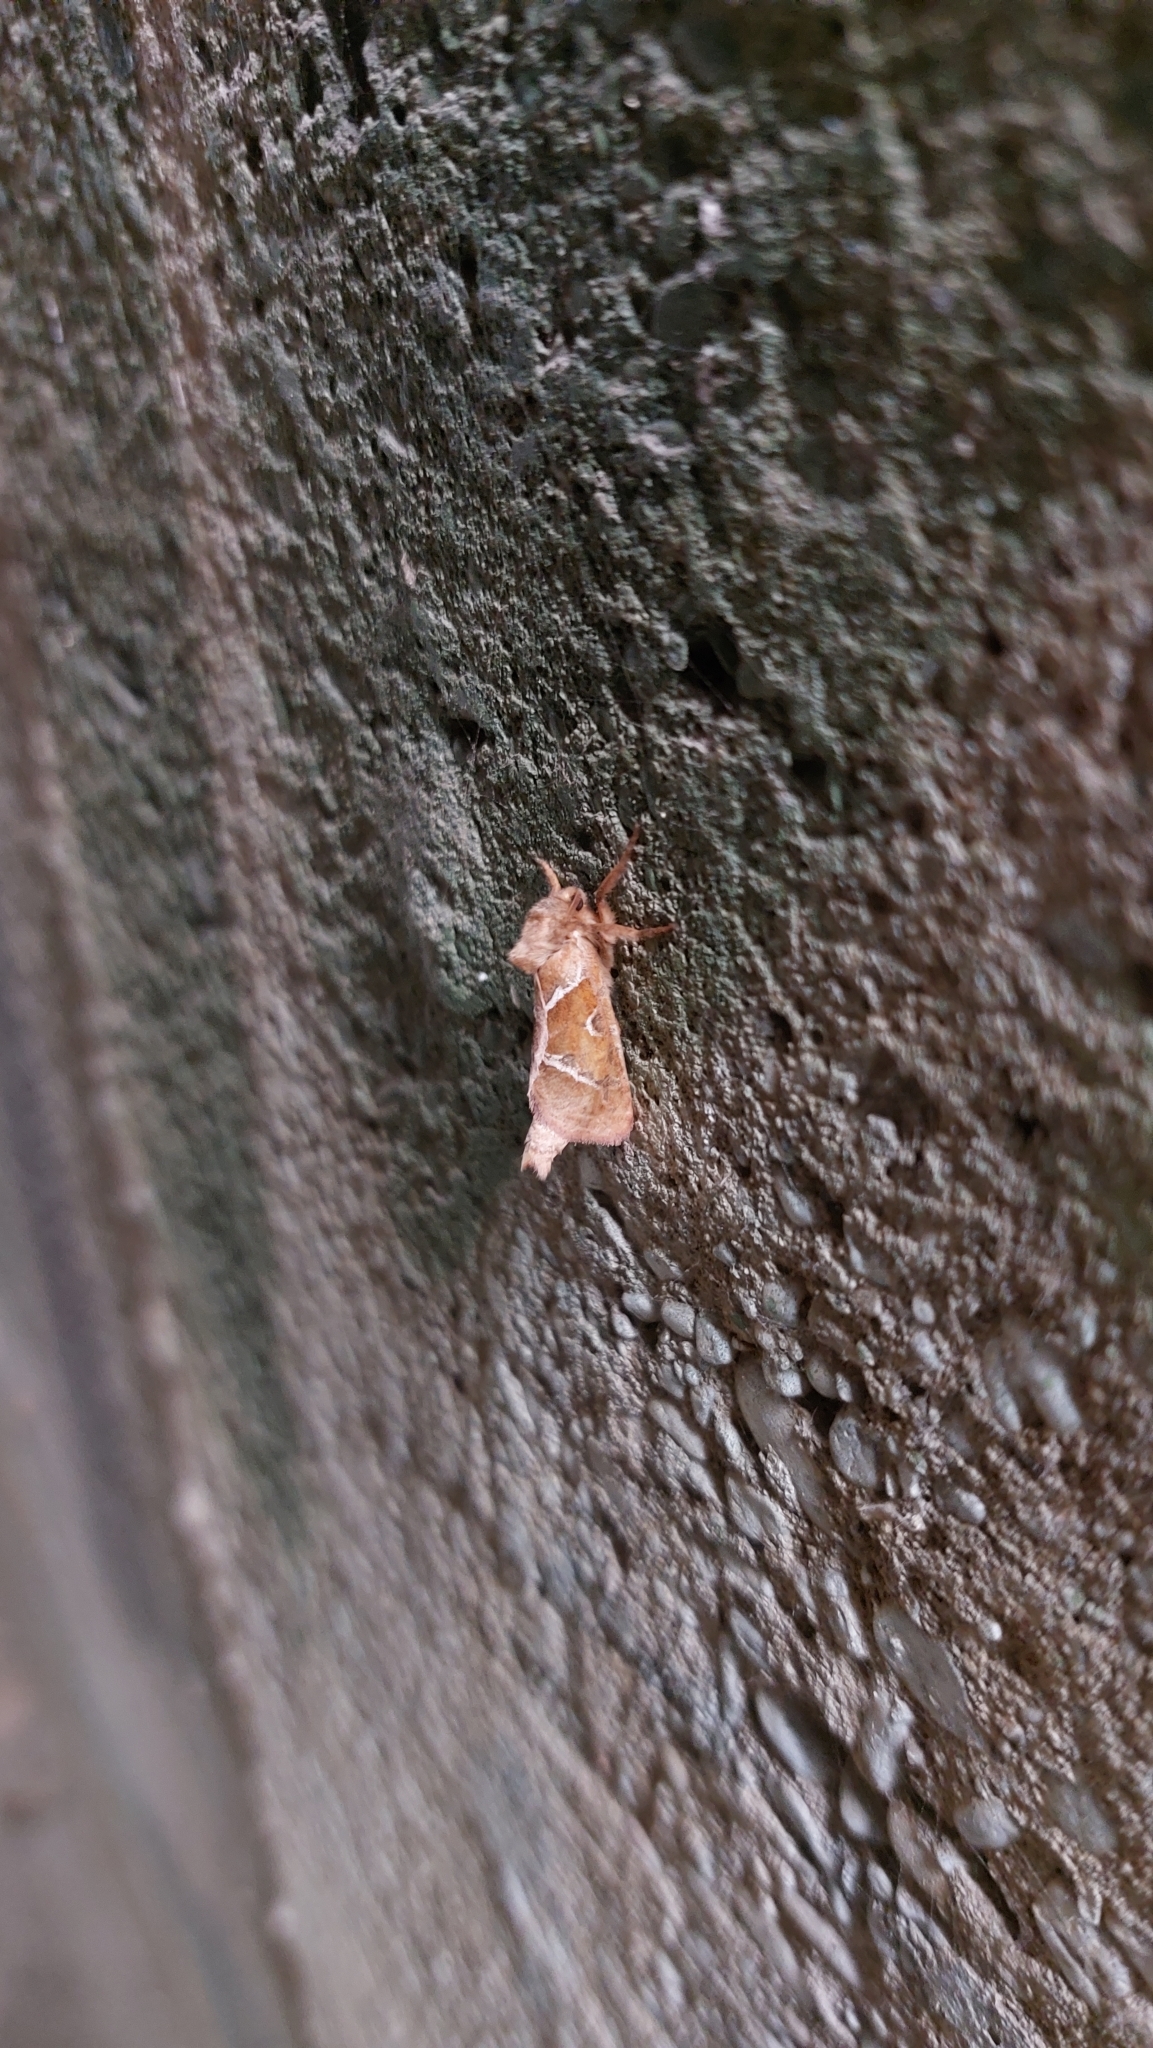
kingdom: Animalia
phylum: Arthropoda
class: Insecta
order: Lepidoptera
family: Hepialidae
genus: Triodia
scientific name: Triodia sylvina
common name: Orange swift
